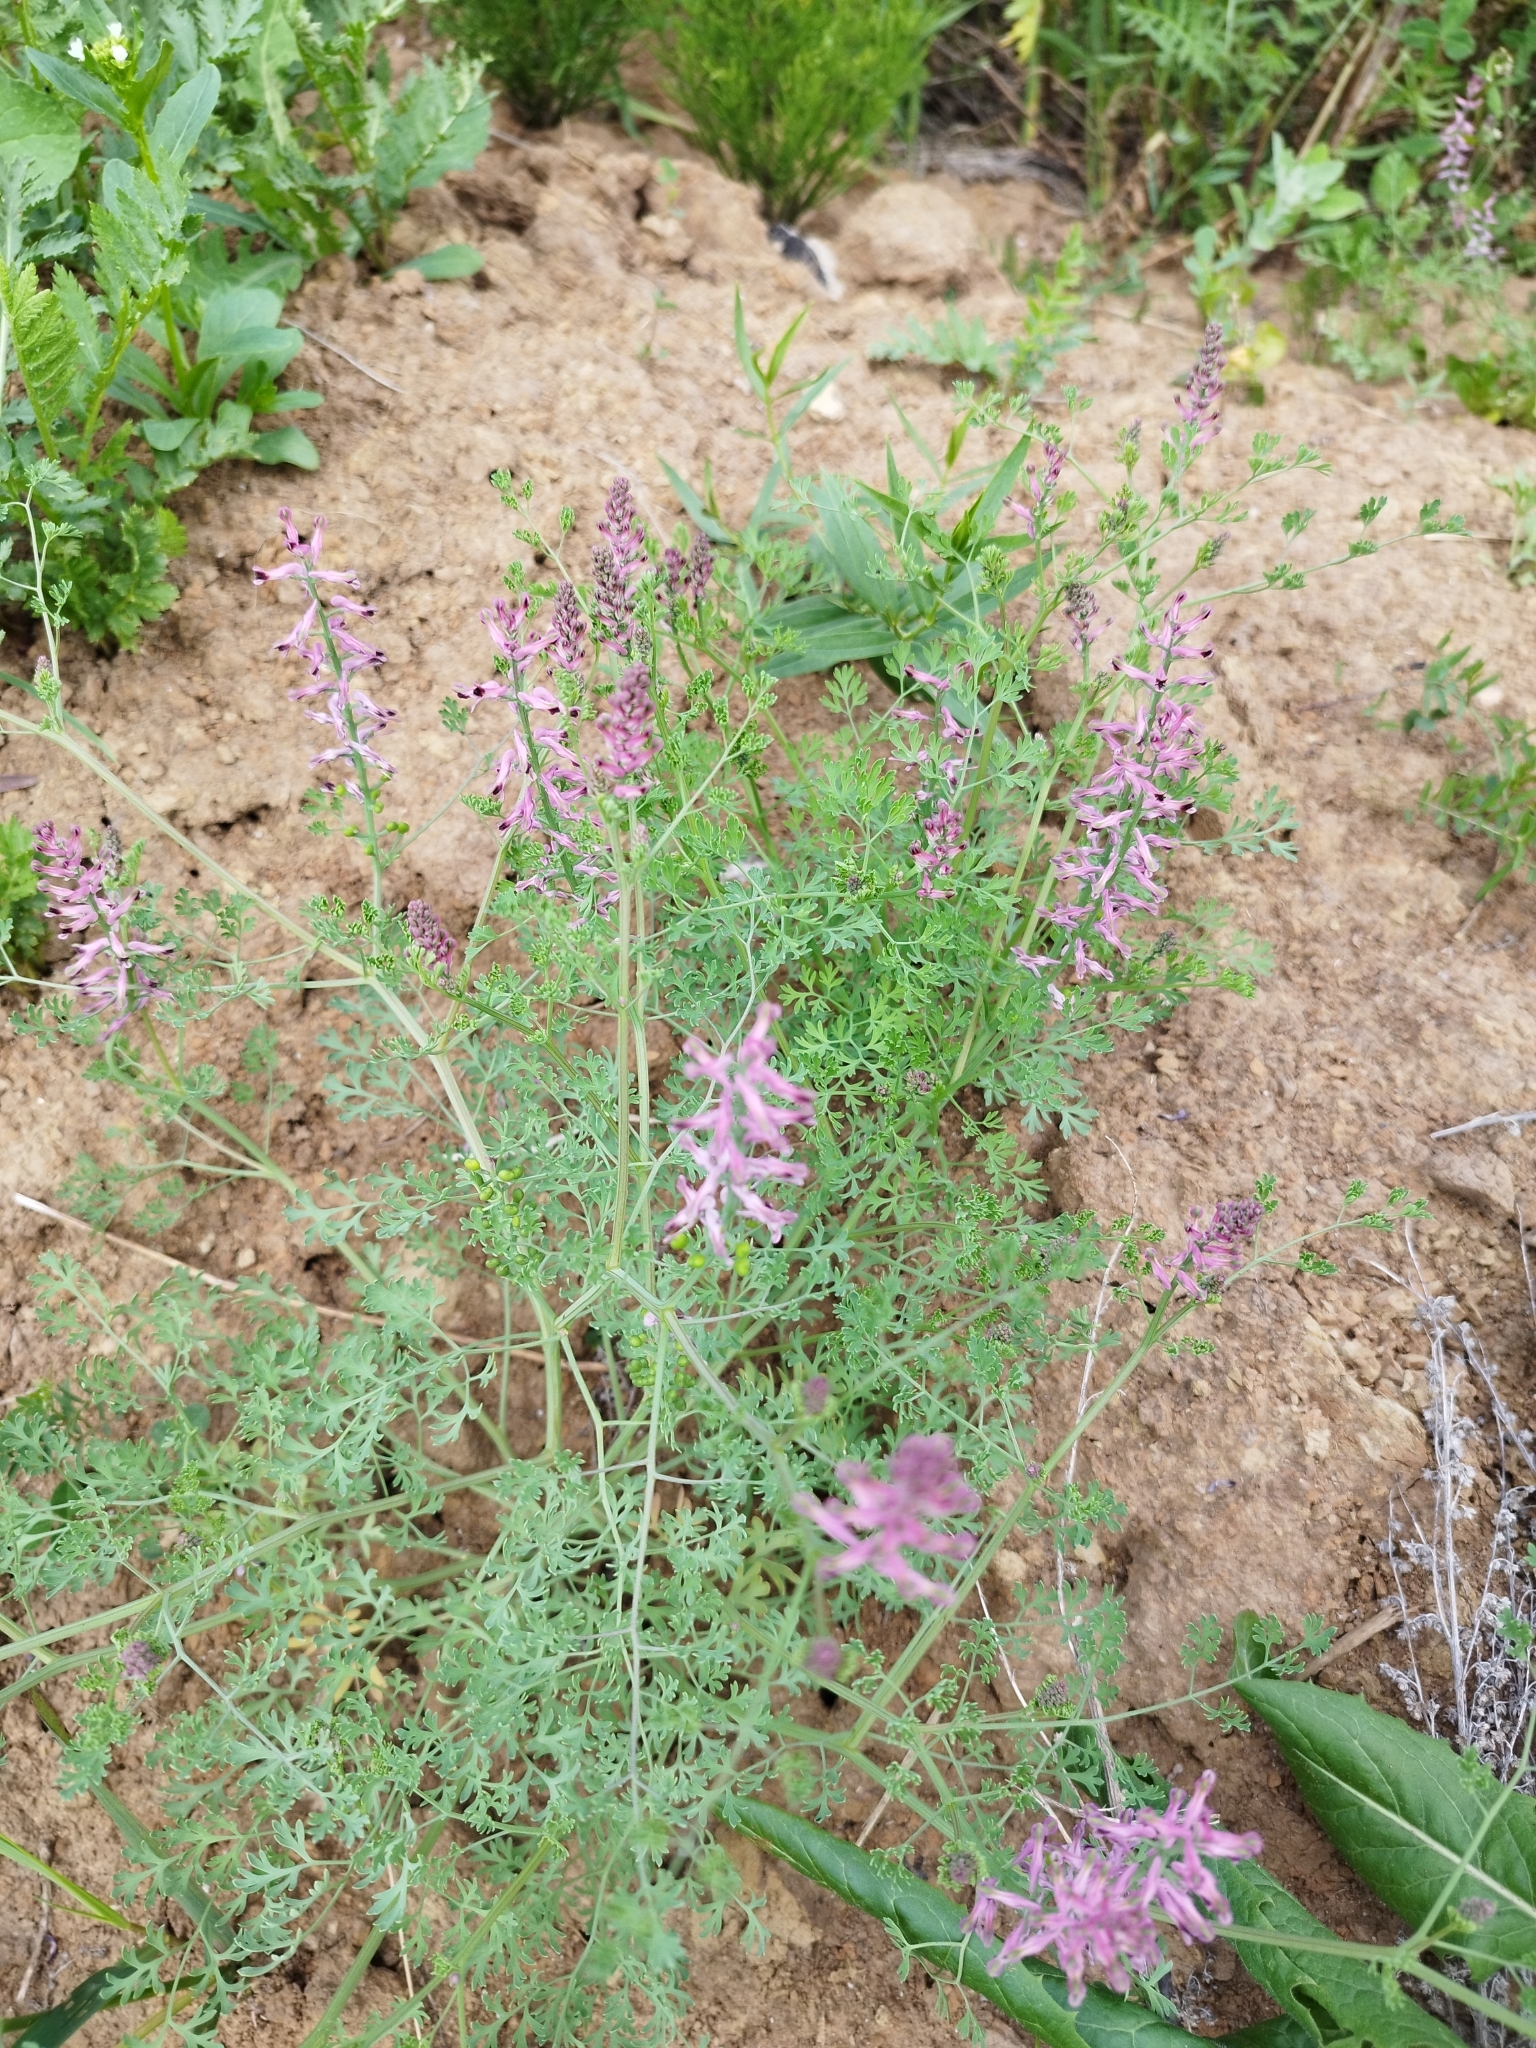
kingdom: Plantae
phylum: Tracheophyta
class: Magnoliopsida
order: Ranunculales
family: Papaveraceae
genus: Fumaria
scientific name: Fumaria officinalis
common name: Common fumitory
